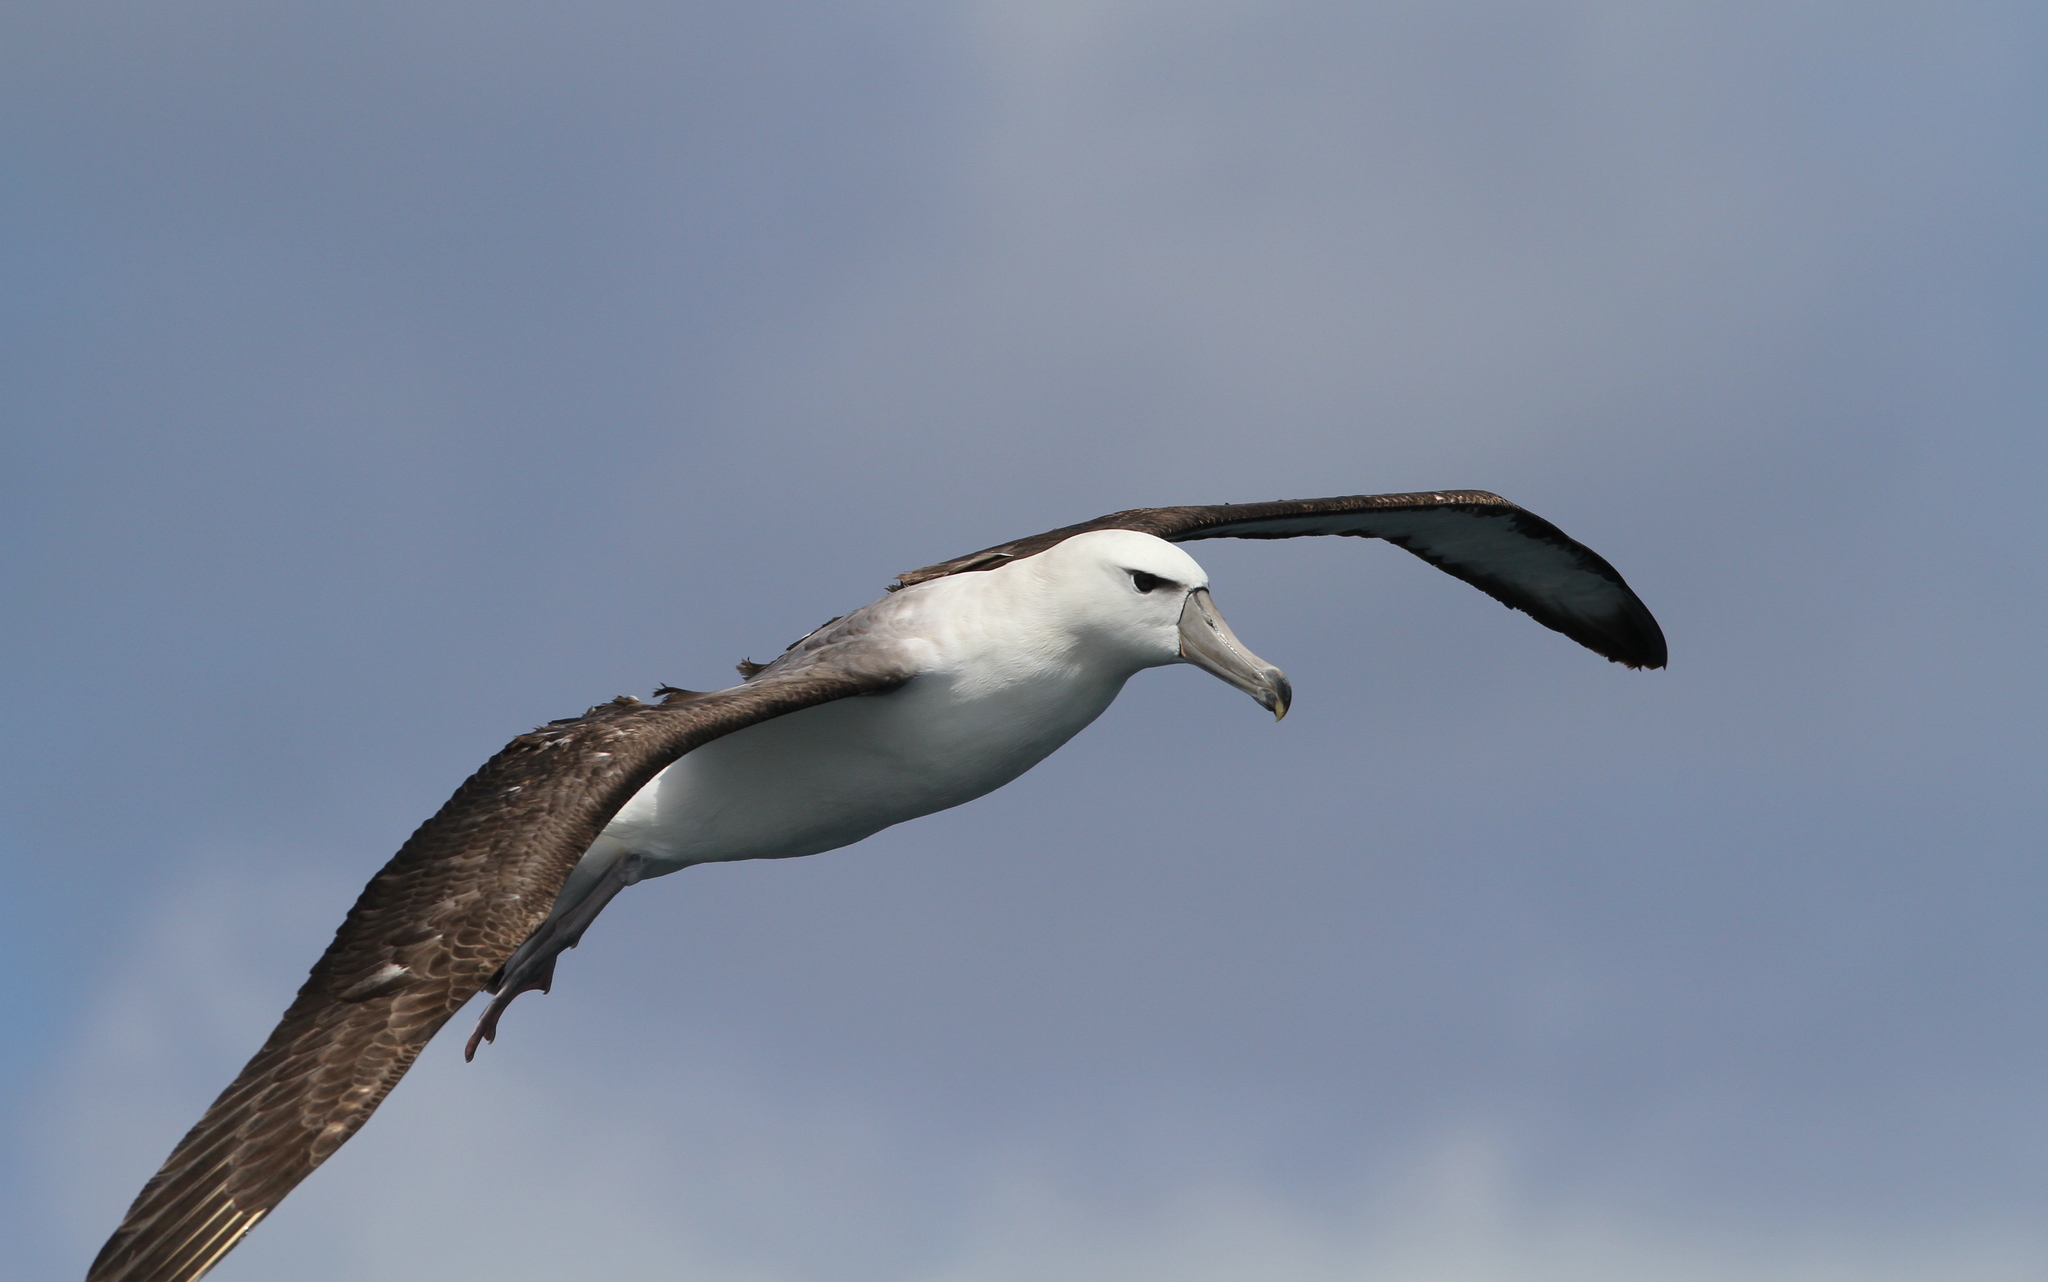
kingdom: Animalia
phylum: Chordata
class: Aves
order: Procellariiformes
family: Diomedeidae
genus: Thalassarche
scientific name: Thalassarche cauta
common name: Shy albatross
